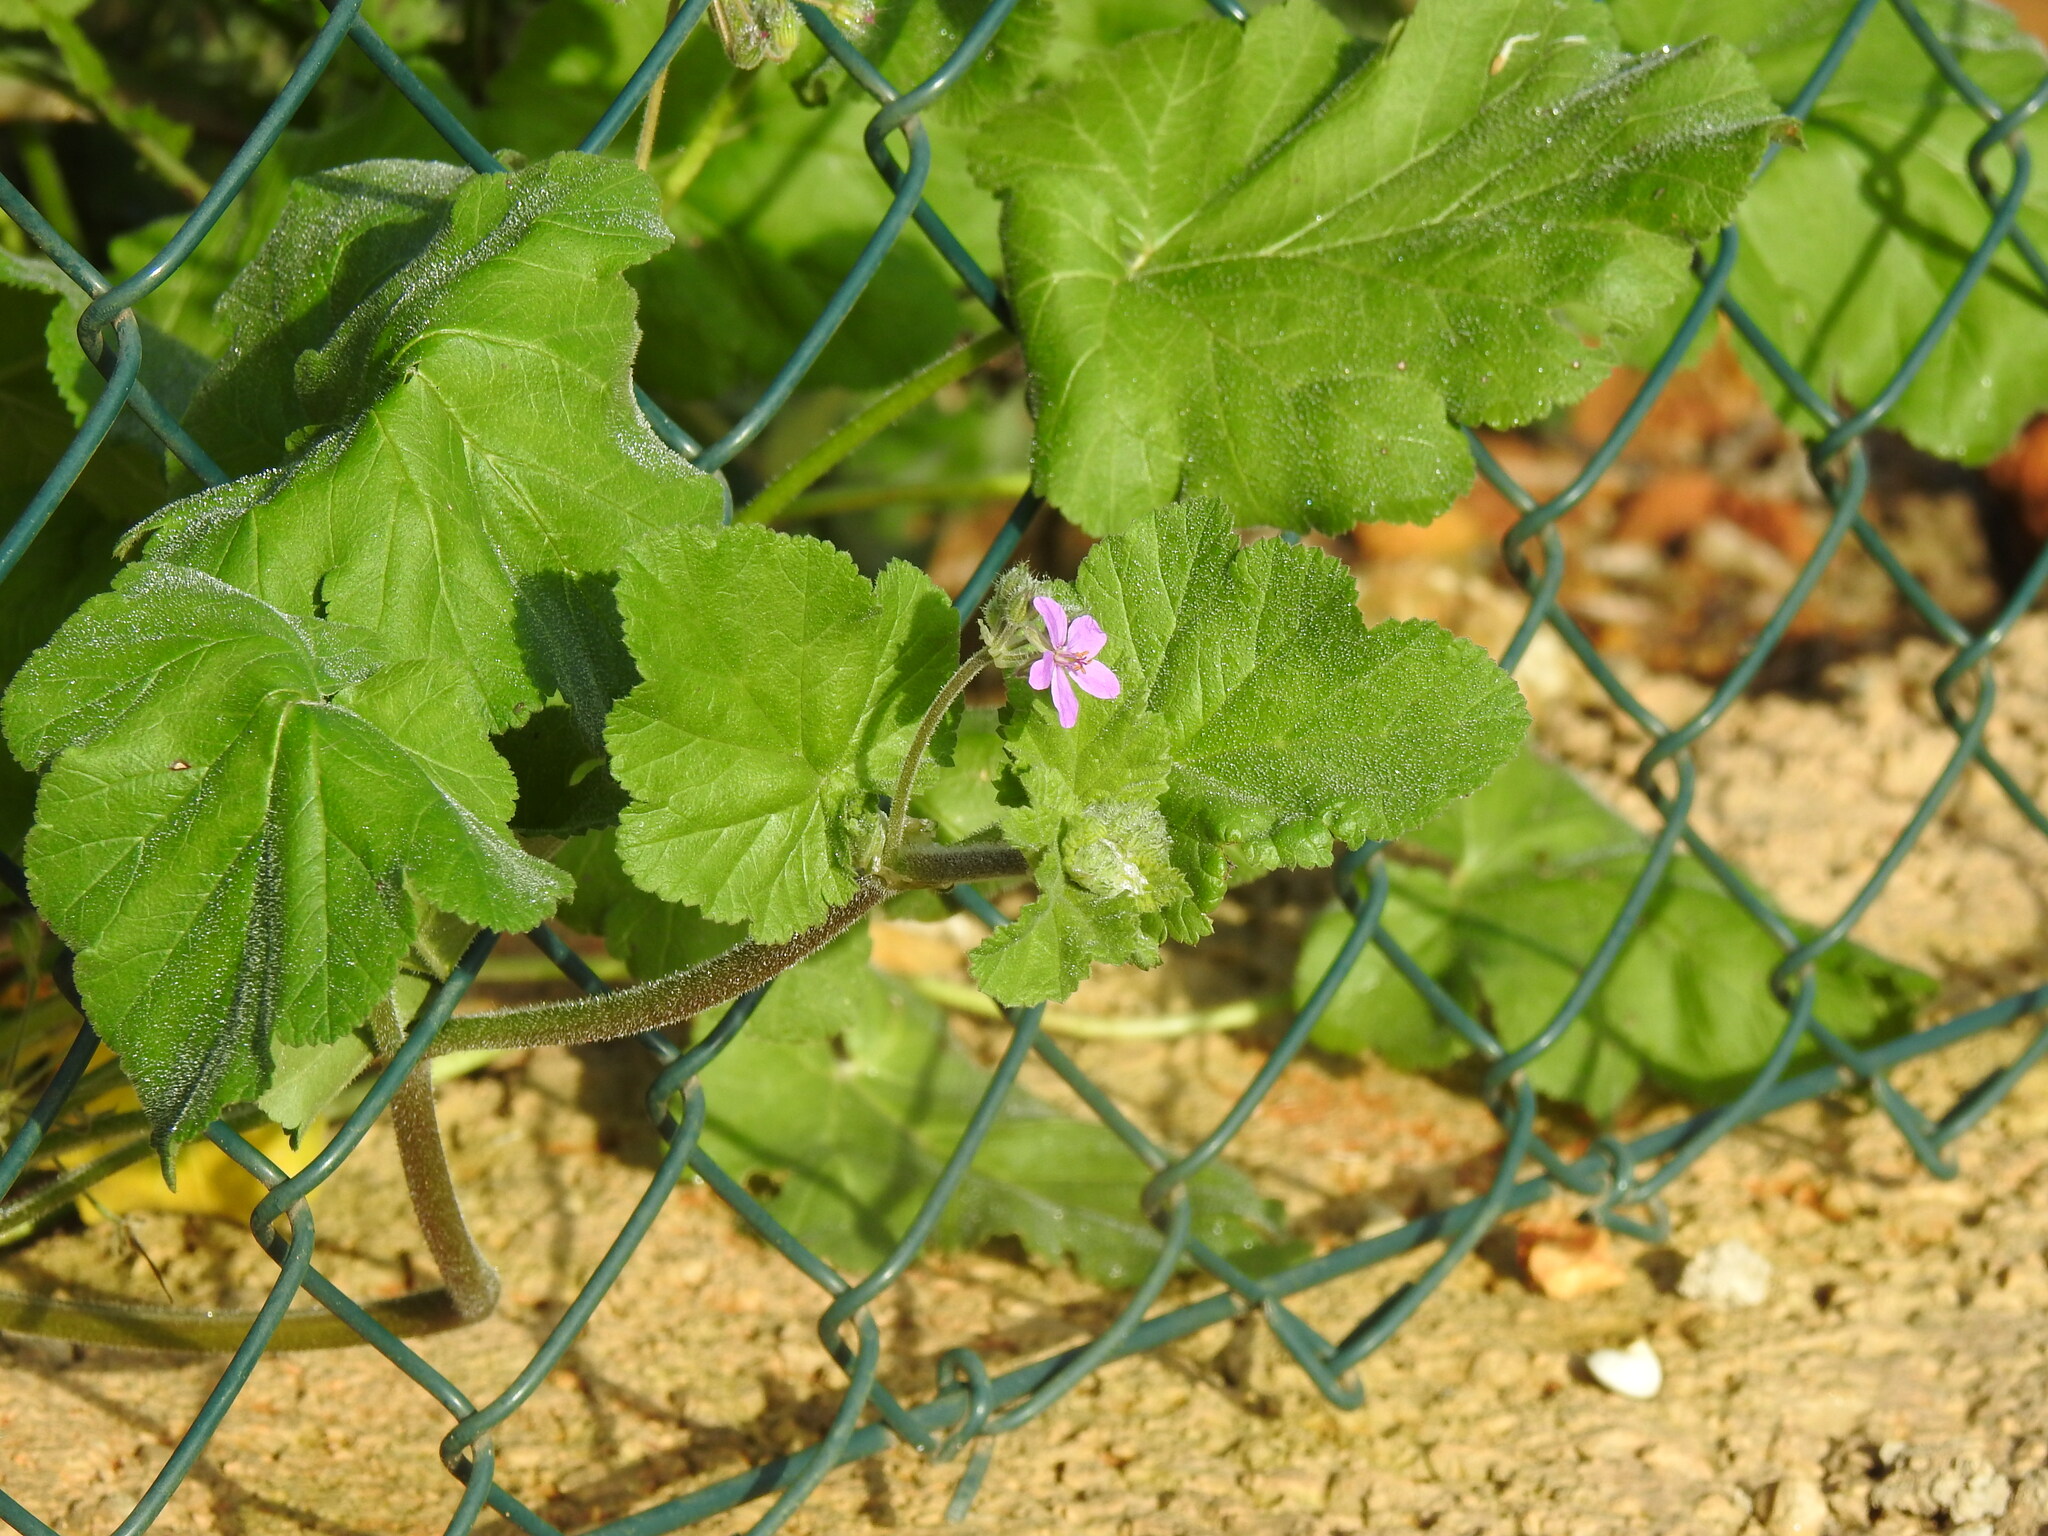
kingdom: Plantae
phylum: Tracheophyta
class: Magnoliopsida
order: Geraniales
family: Geraniaceae
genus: Erodium
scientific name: Erodium malacoides
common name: Soft stork's-bill
